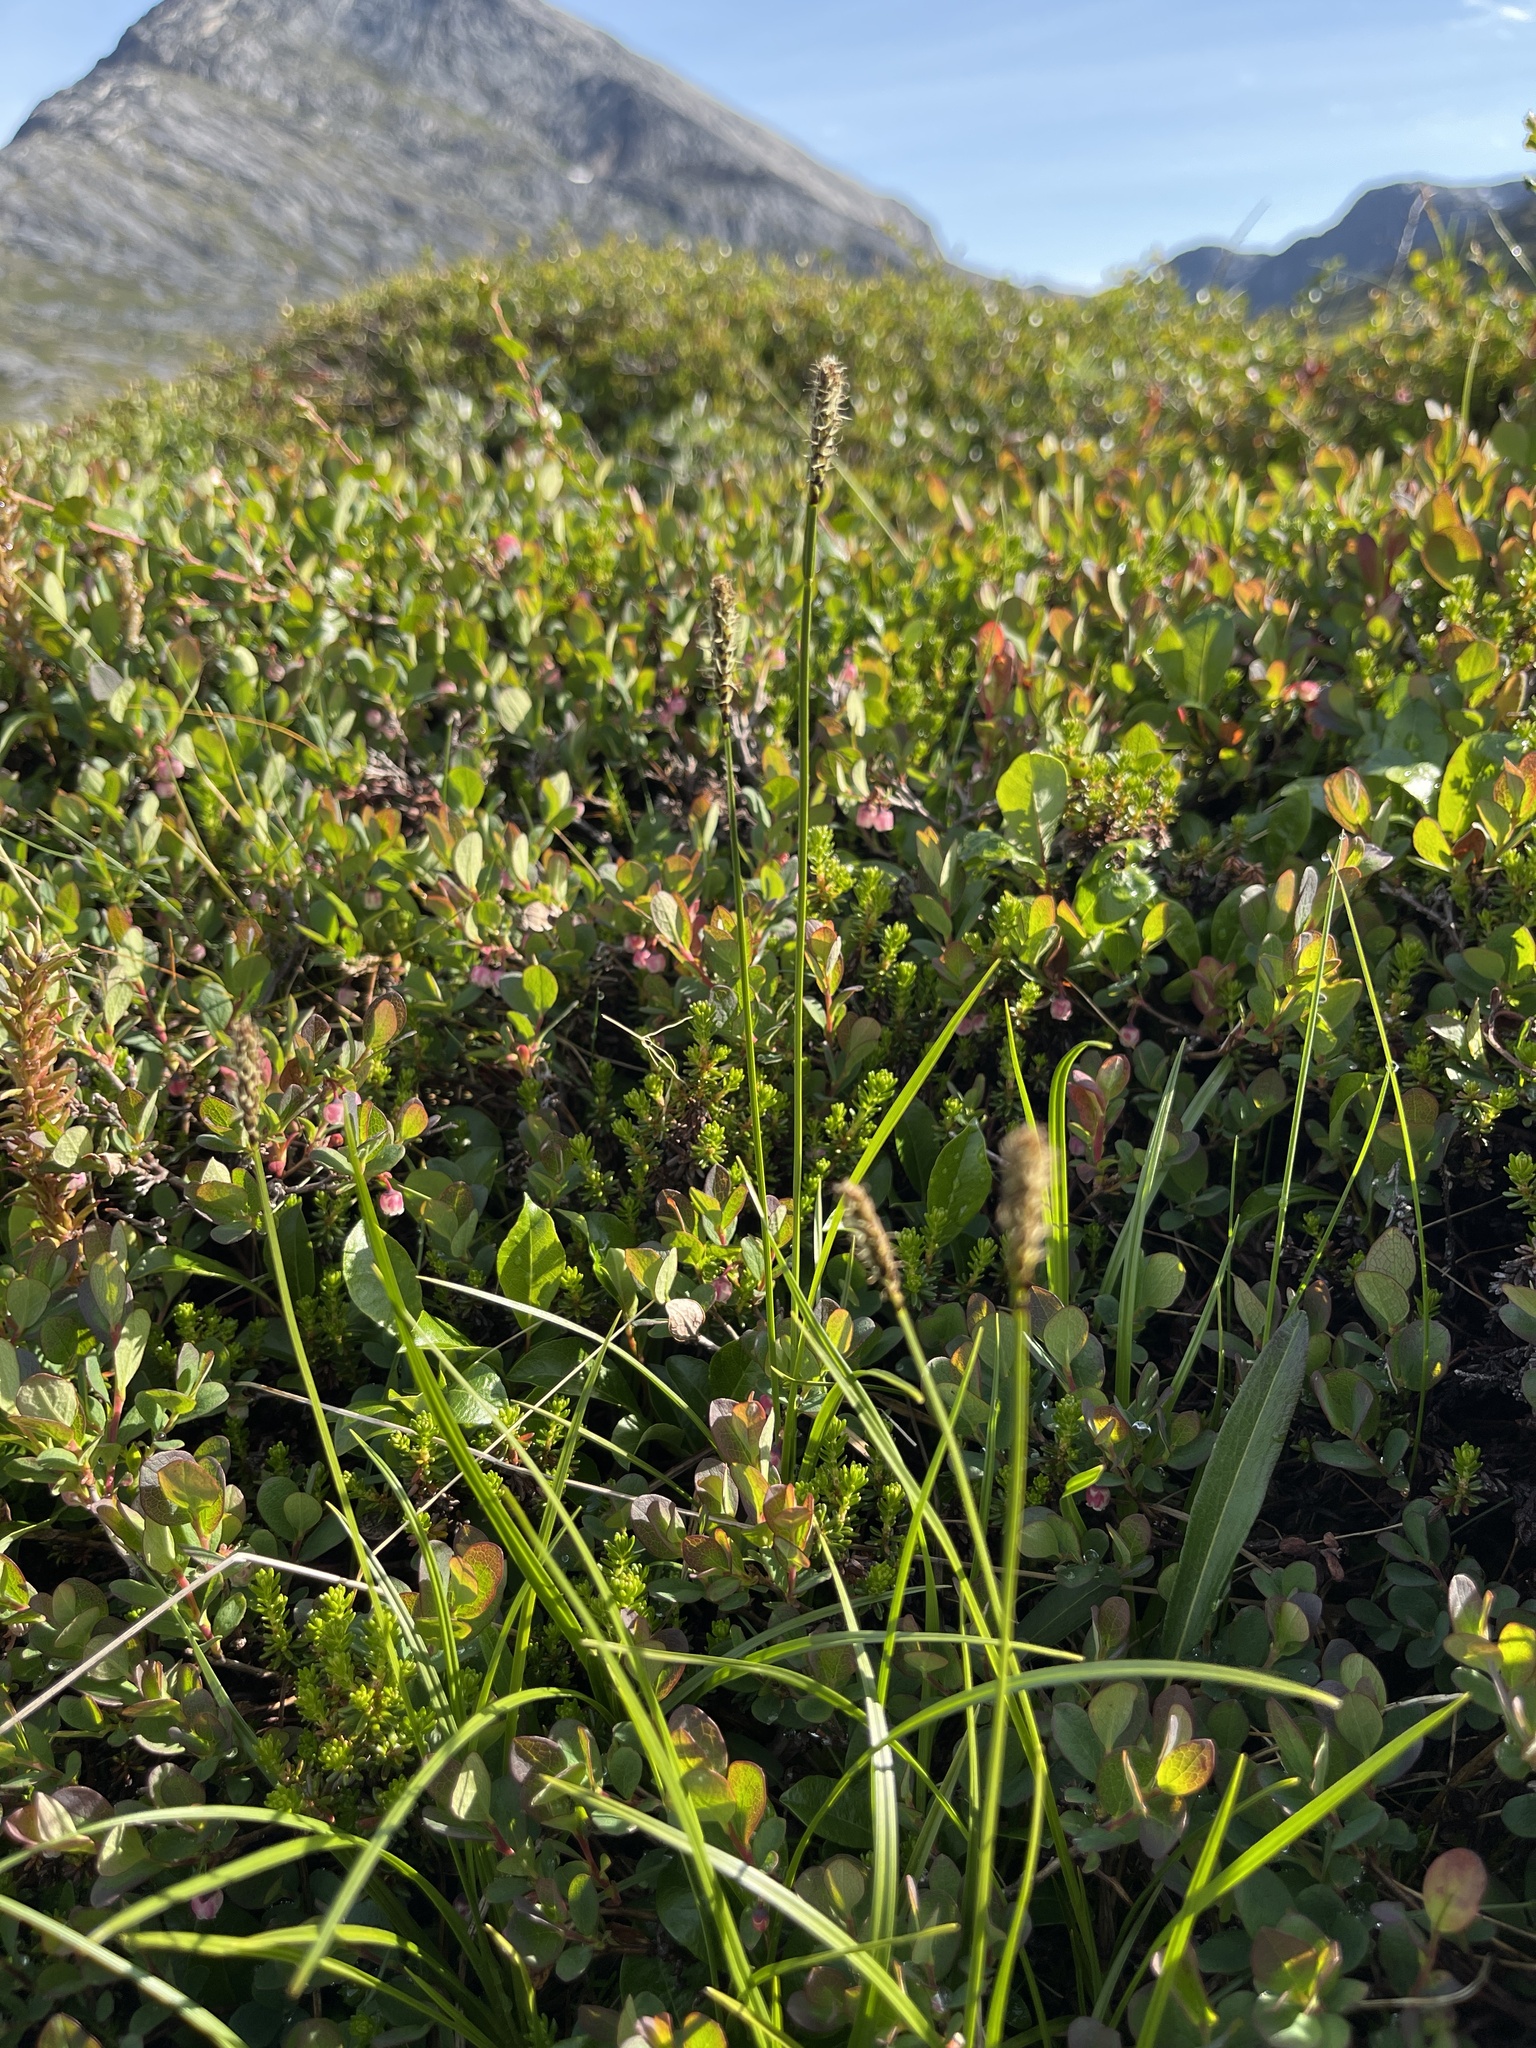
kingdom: Plantae
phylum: Tracheophyta
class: Liliopsida
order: Poales
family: Cyperaceae
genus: Carex
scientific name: Carex scirpoidea
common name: Canada single-spike sedge
